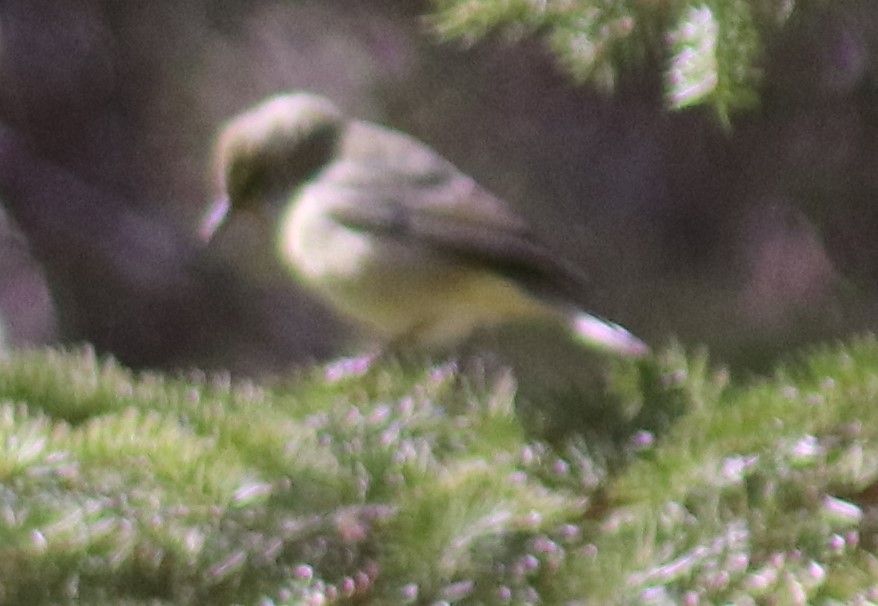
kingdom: Animalia
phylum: Chordata
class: Aves
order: Passeriformes
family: Parulidae
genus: Leiothlypis
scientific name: Leiothlypis celata
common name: Orange-crowned warbler
